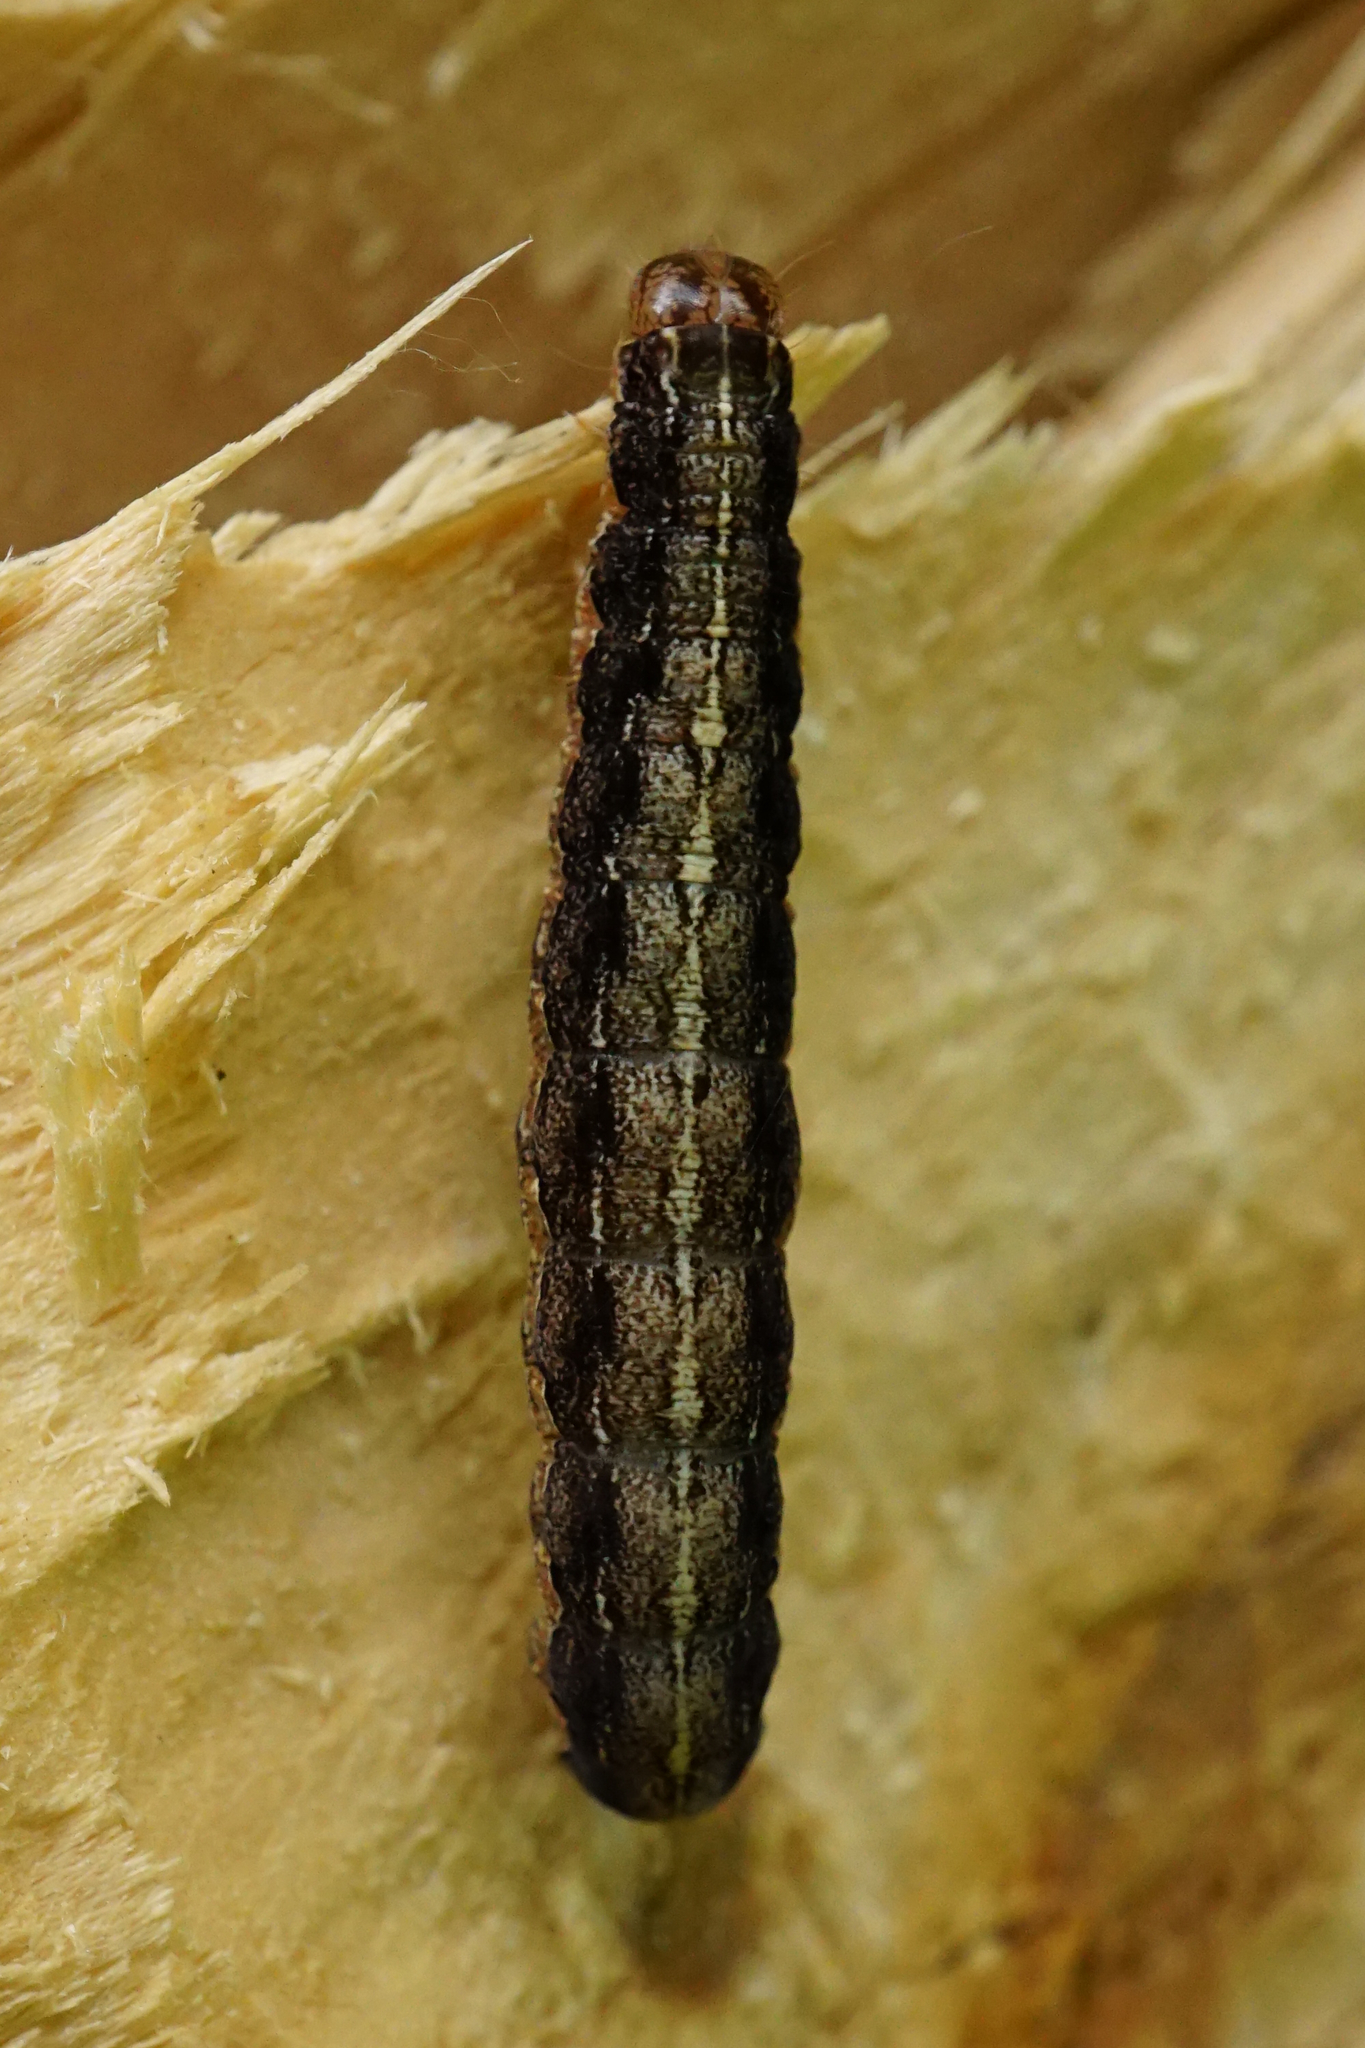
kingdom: Animalia
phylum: Arthropoda
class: Insecta
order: Lepidoptera
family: Noctuidae
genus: Apterogenum
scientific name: Apterogenum ypsillon
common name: Dingy shears
